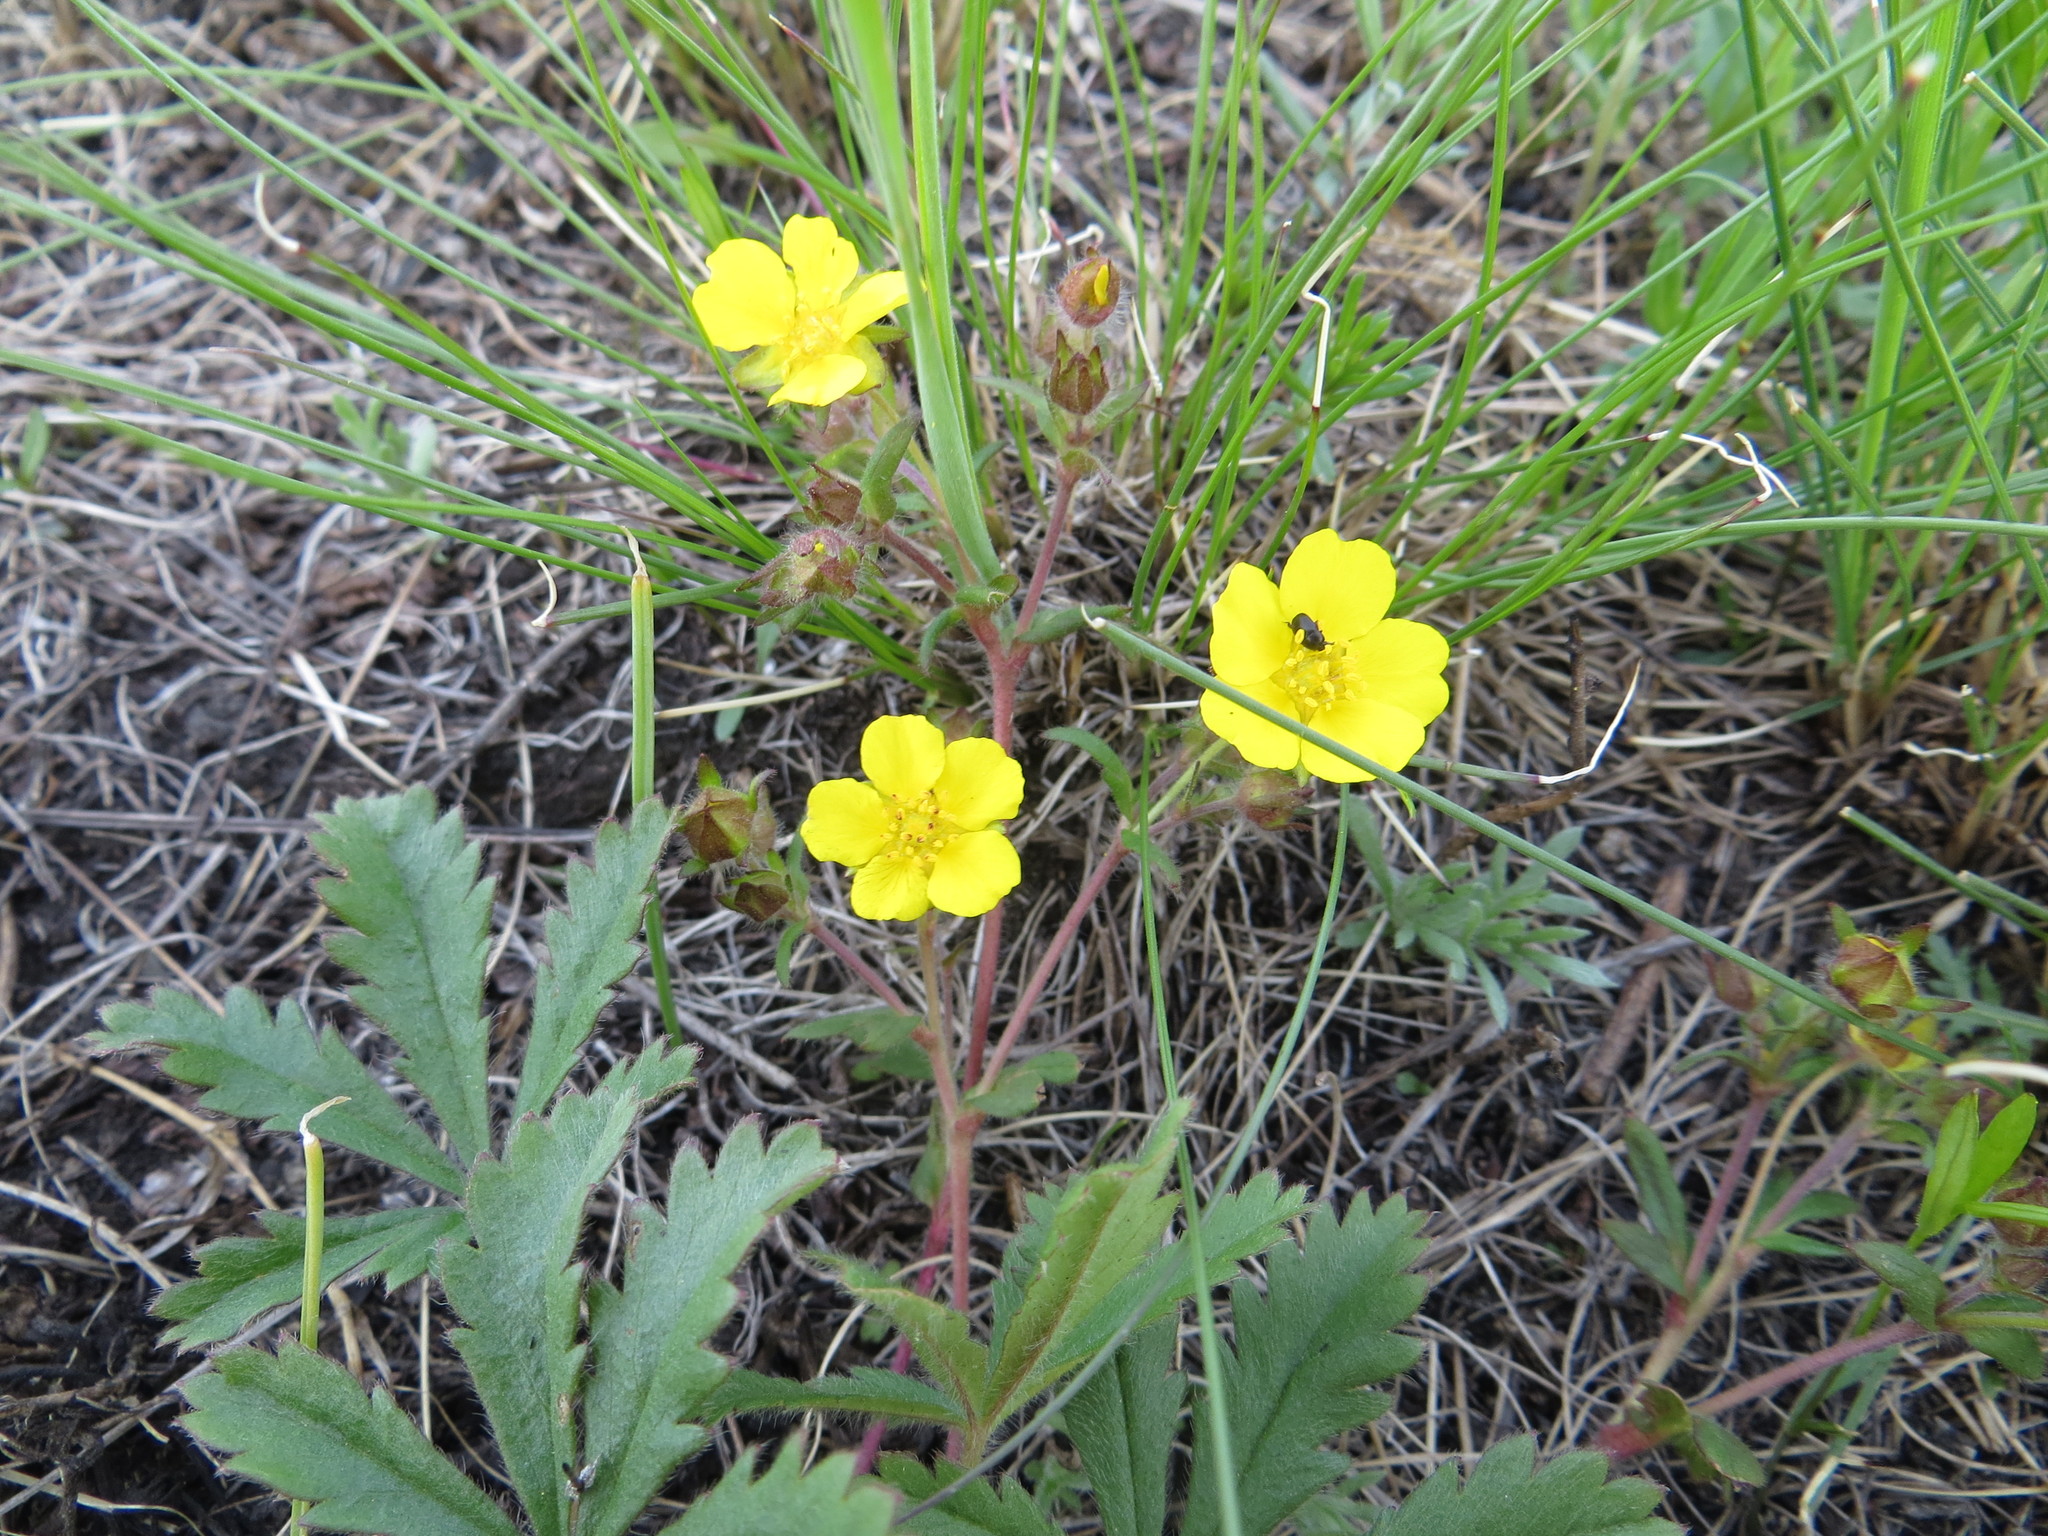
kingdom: Plantae
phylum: Tracheophyta
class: Magnoliopsida
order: Rosales
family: Rosaceae
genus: Potentilla
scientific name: Potentilla humifusa
